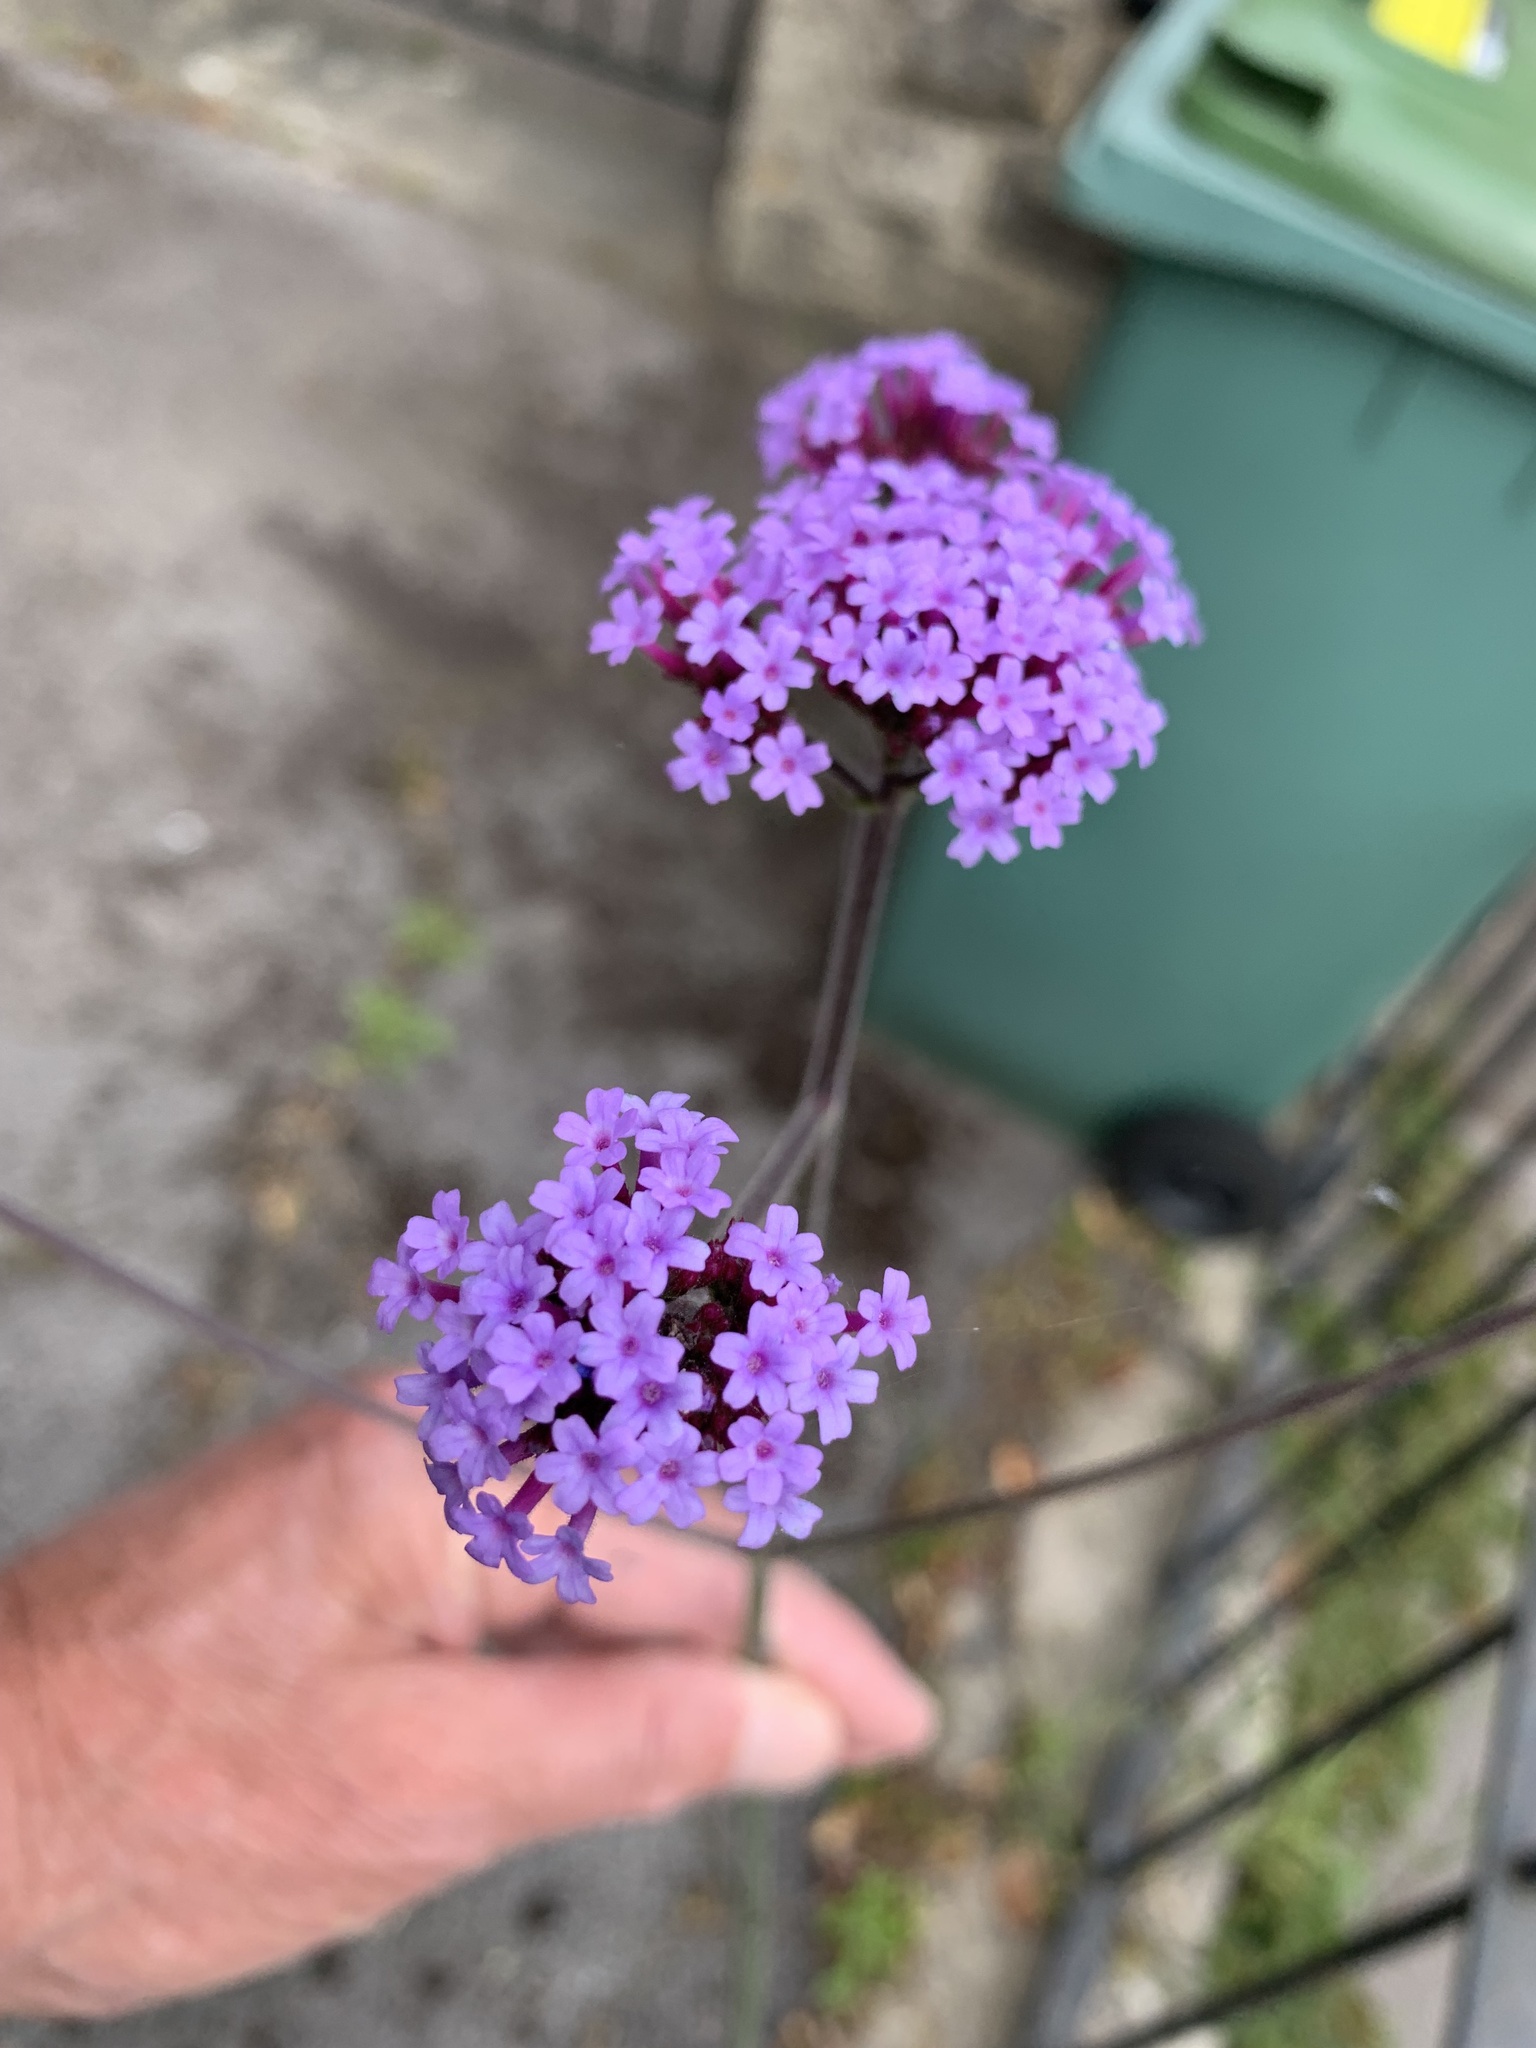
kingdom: Plantae
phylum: Tracheophyta
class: Magnoliopsida
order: Lamiales
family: Verbenaceae
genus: Verbena
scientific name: Verbena bonariensis
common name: Purpletop vervain
